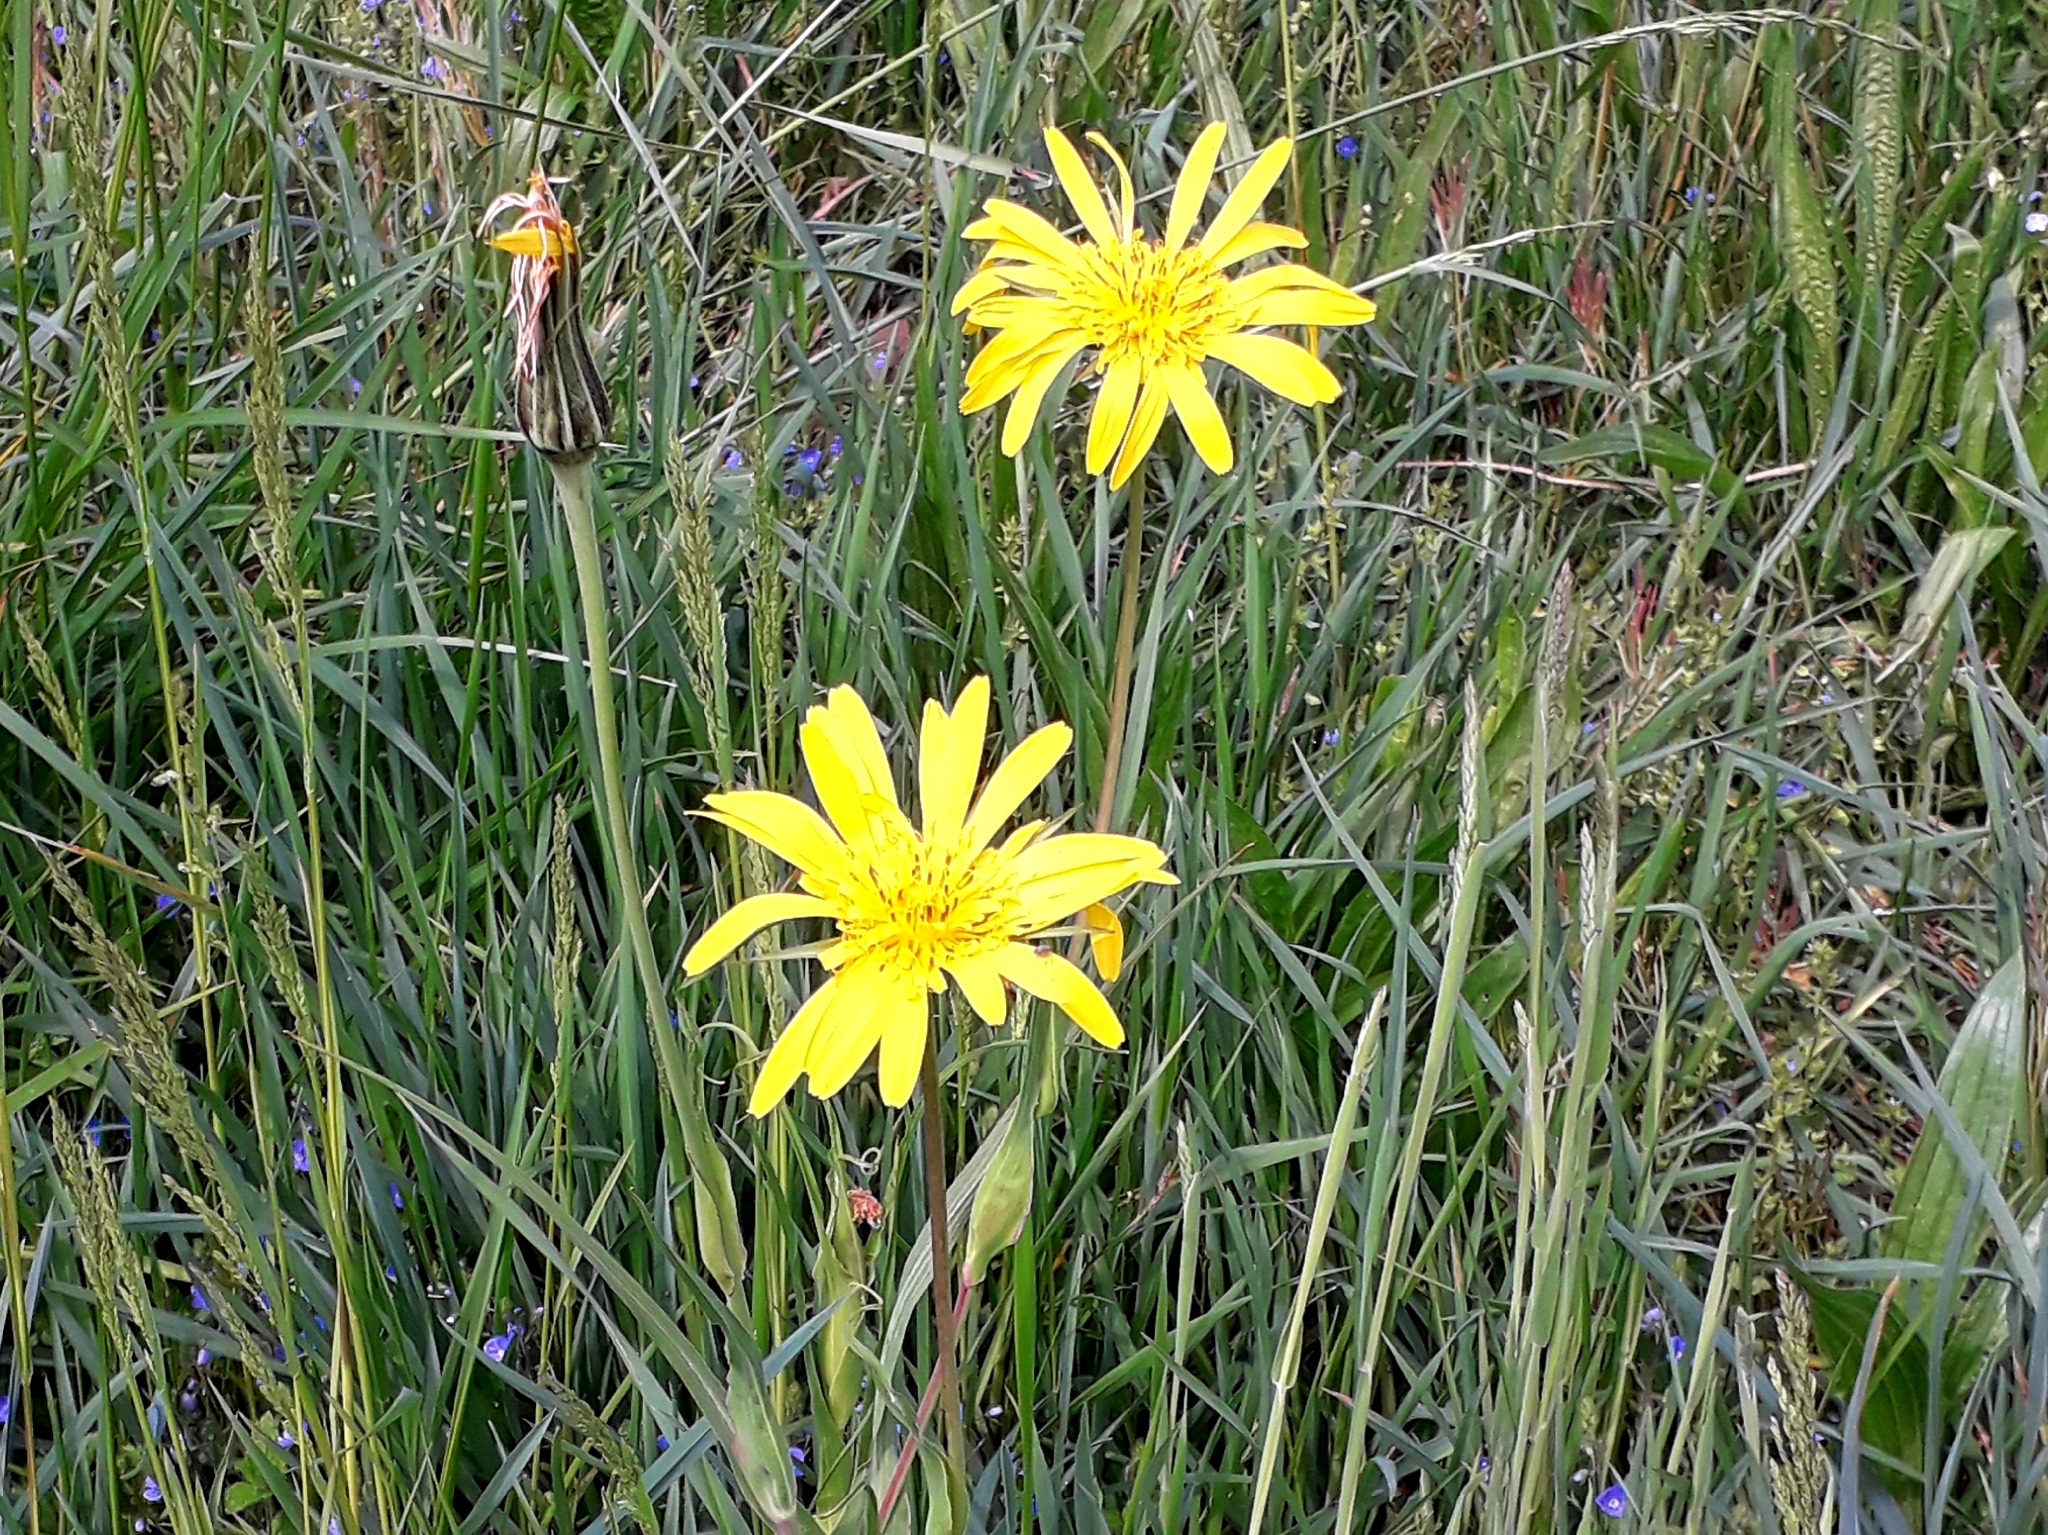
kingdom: Plantae
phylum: Tracheophyta
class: Magnoliopsida
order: Asterales
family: Asteraceae
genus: Tragopogon
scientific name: Tragopogon orientalis
